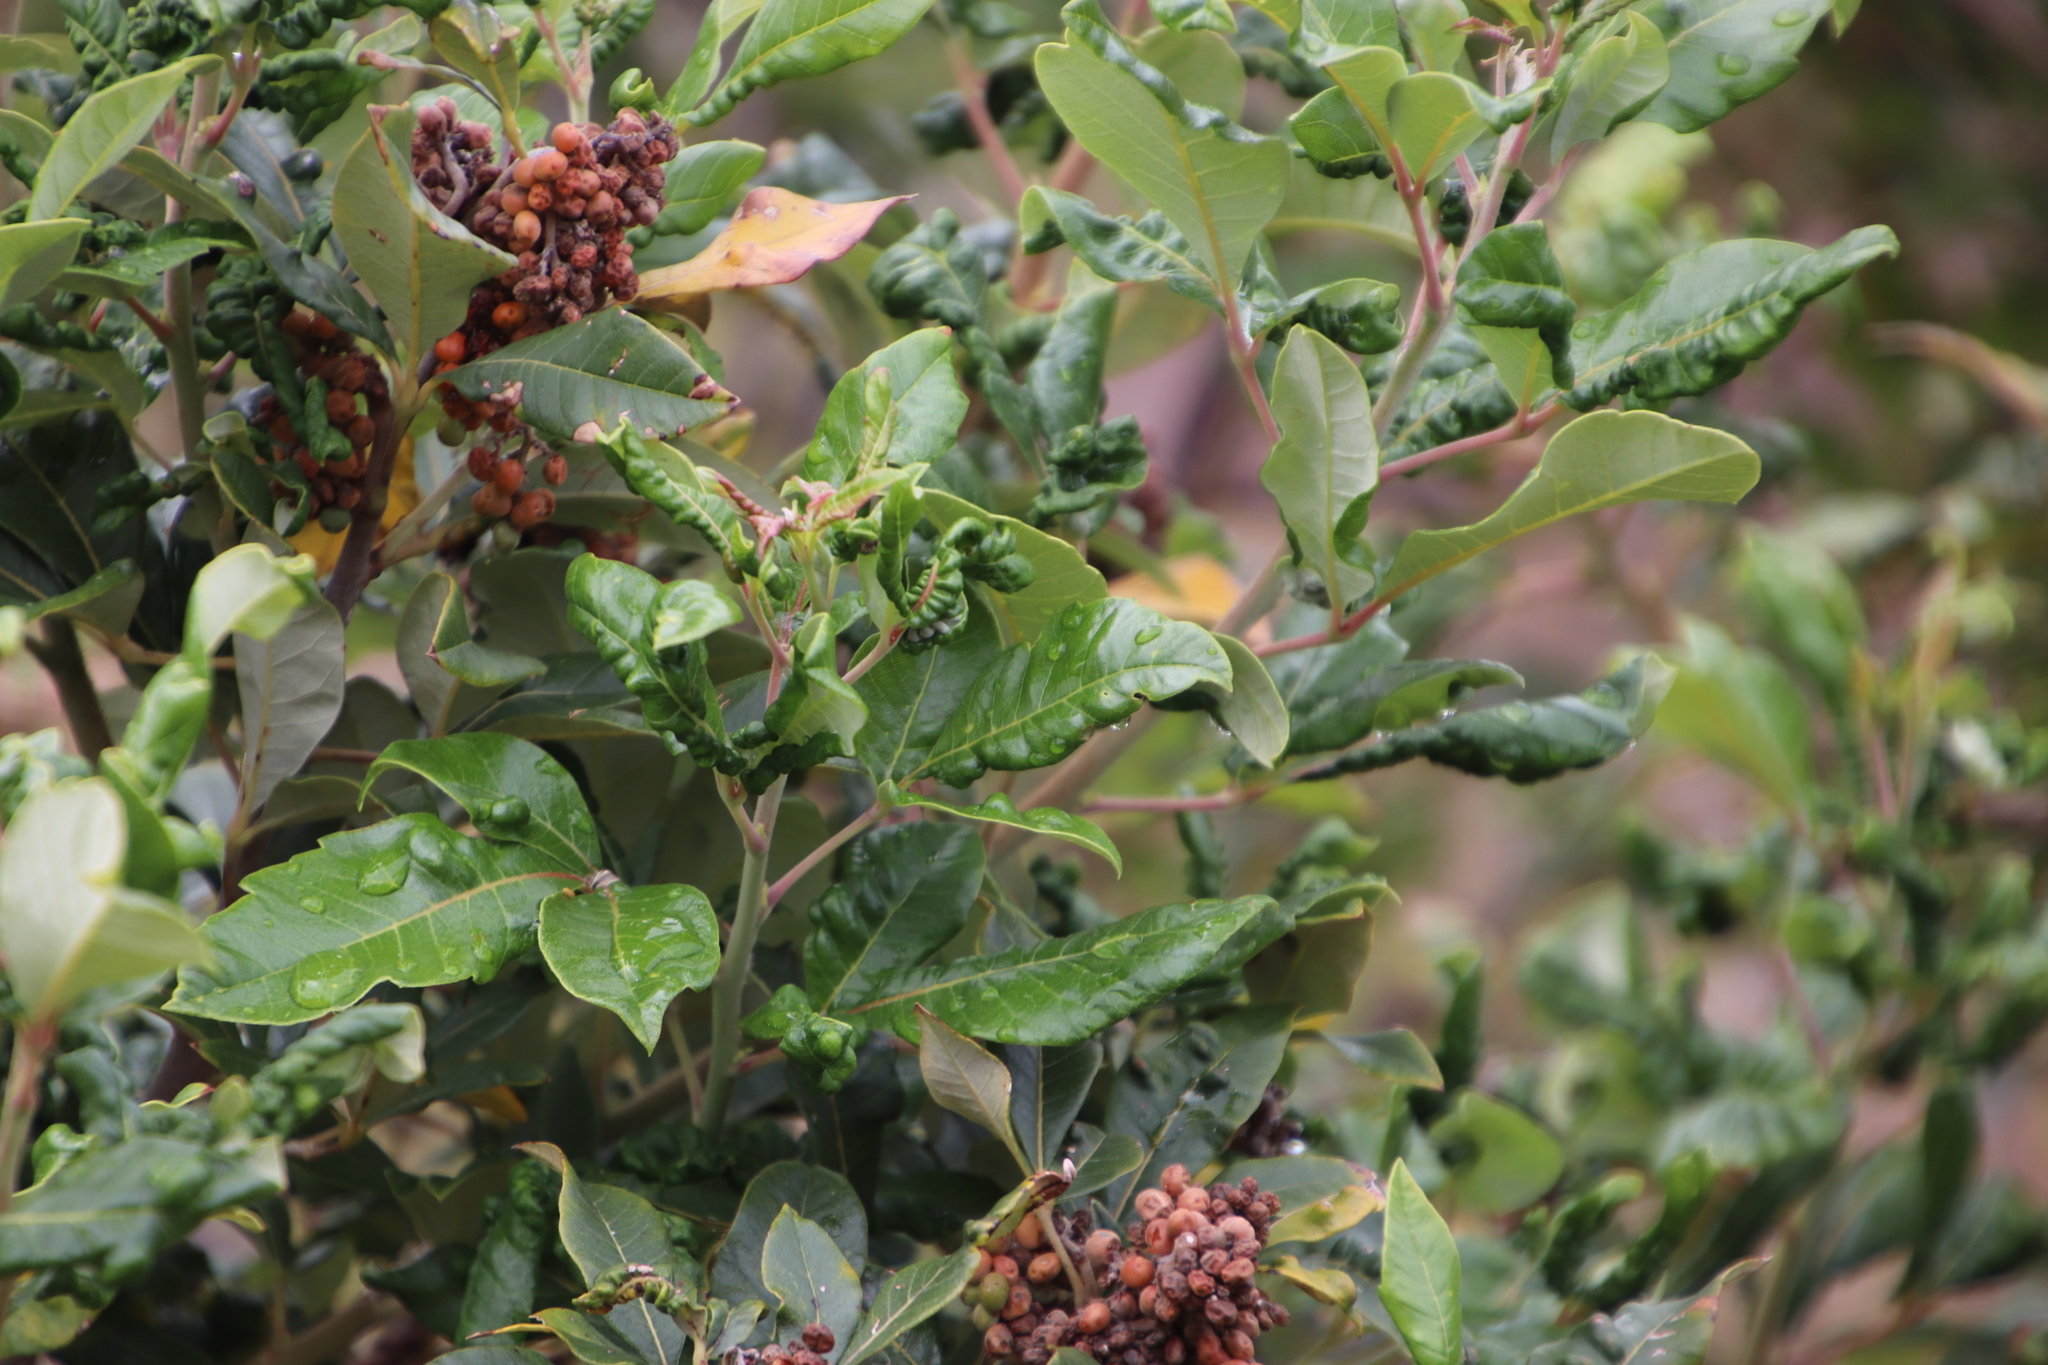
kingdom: Plantae
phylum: Tracheophyta
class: Magnoliopsida
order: Sapindales
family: Anacardiaceae
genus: Searsia
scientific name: Searsia tomentosa
